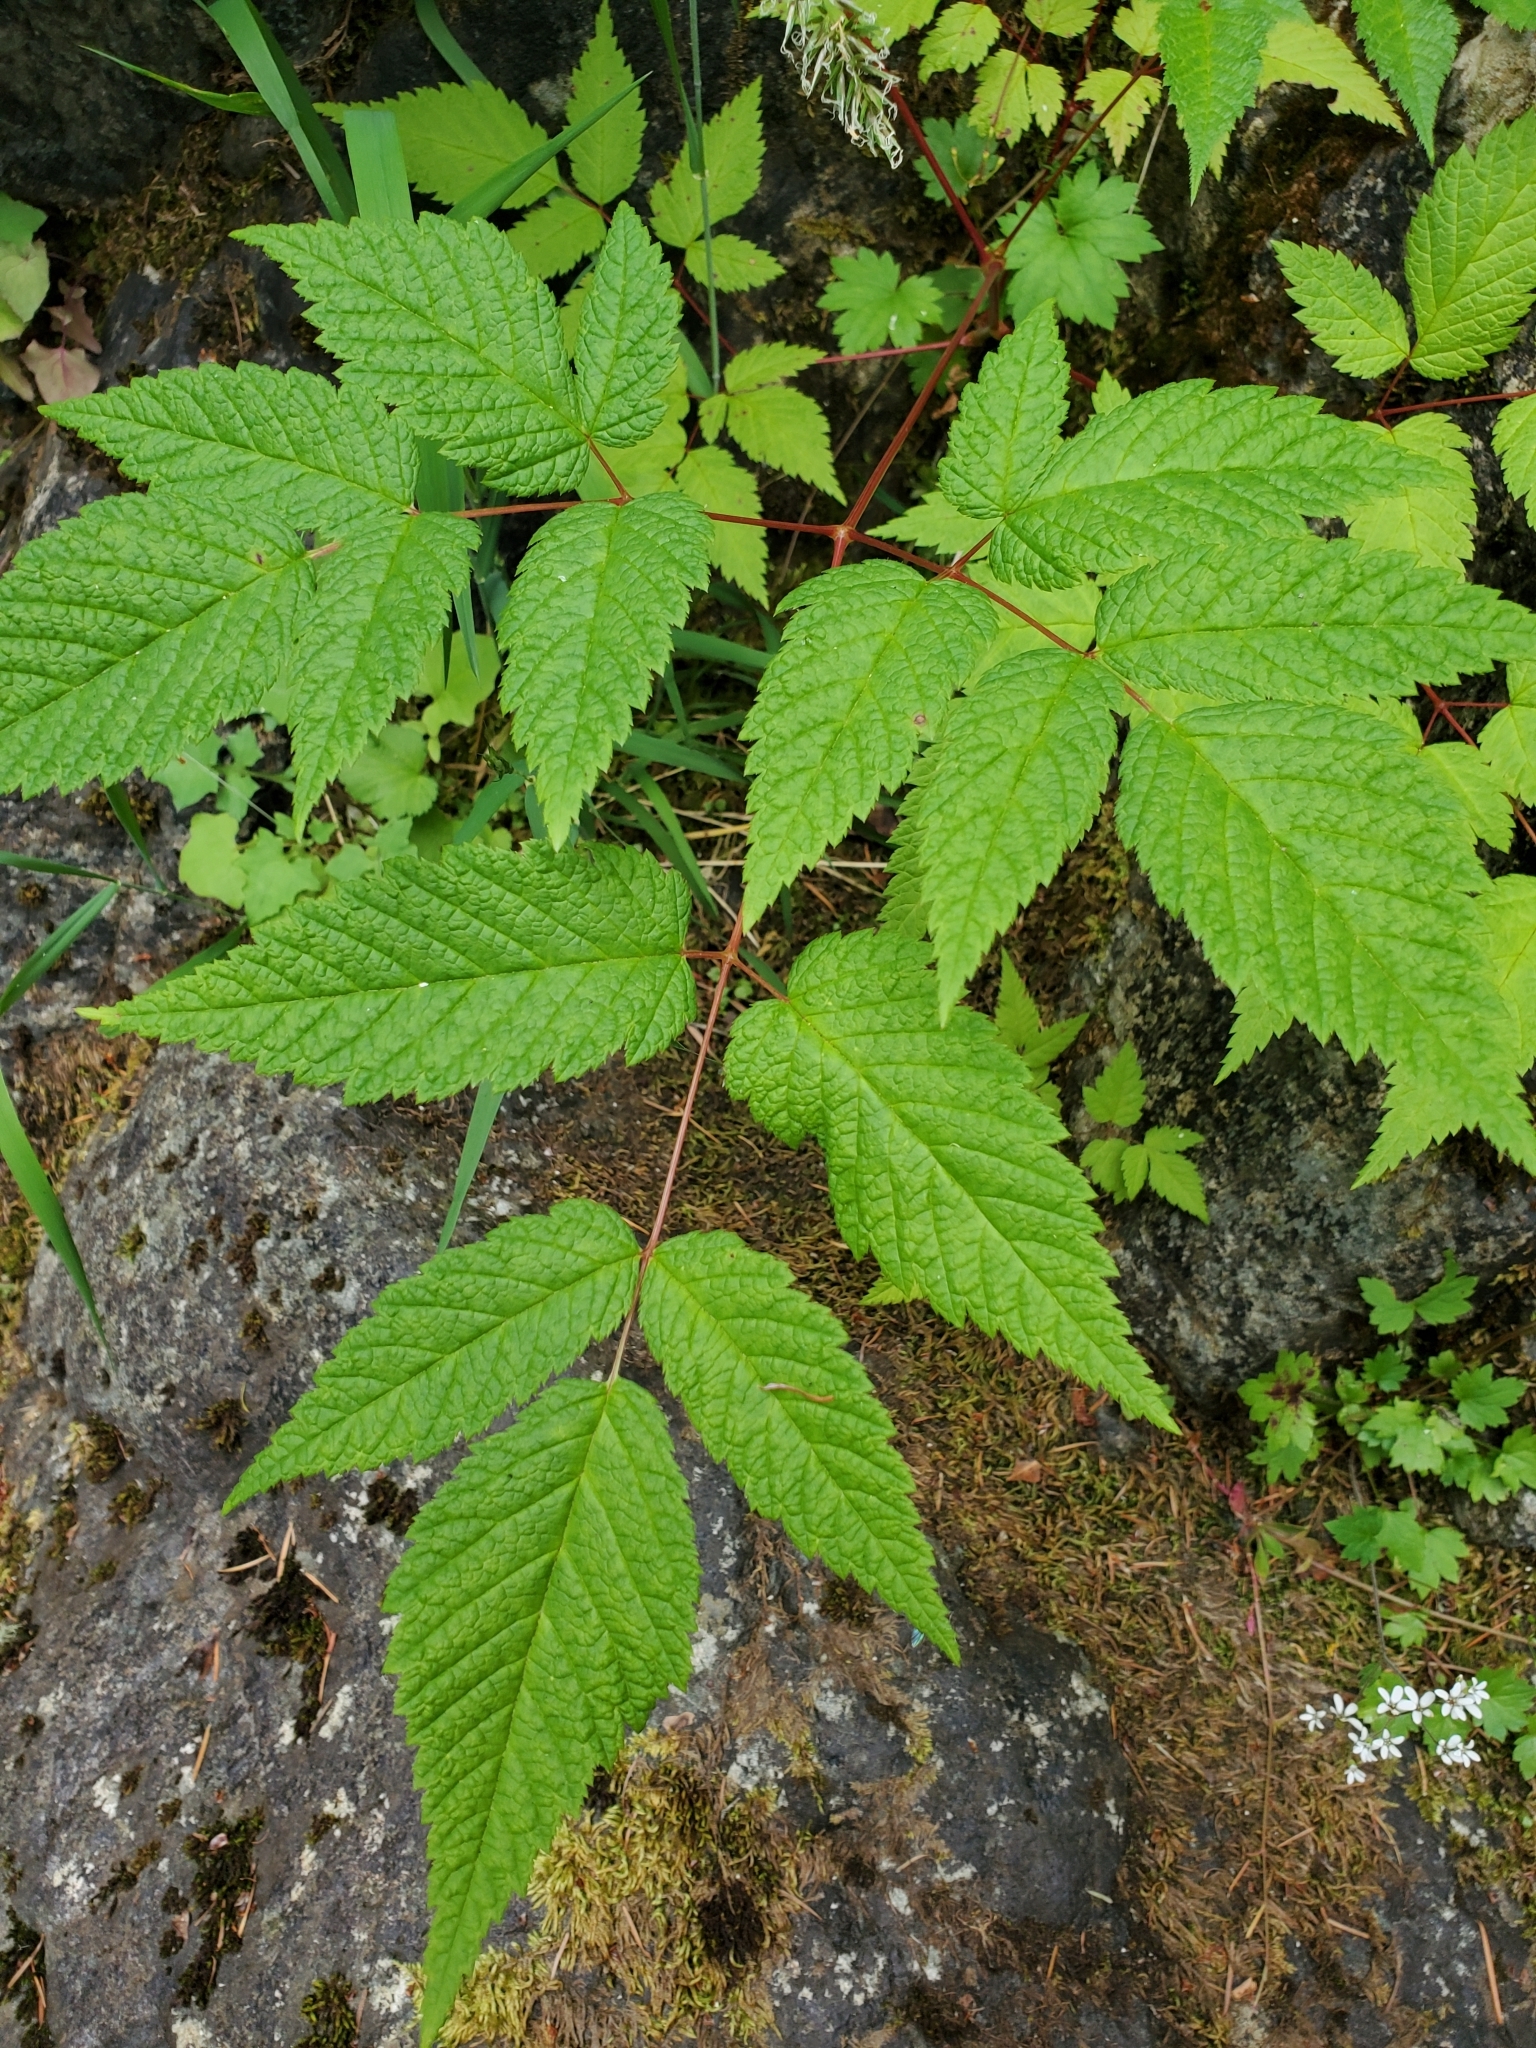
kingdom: Plantae
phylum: Tracheophyta
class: Magnoliopsida
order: Rosales
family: Rosaceae
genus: Aruncus
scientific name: Aruncus dioicus
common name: Buck's-beard
